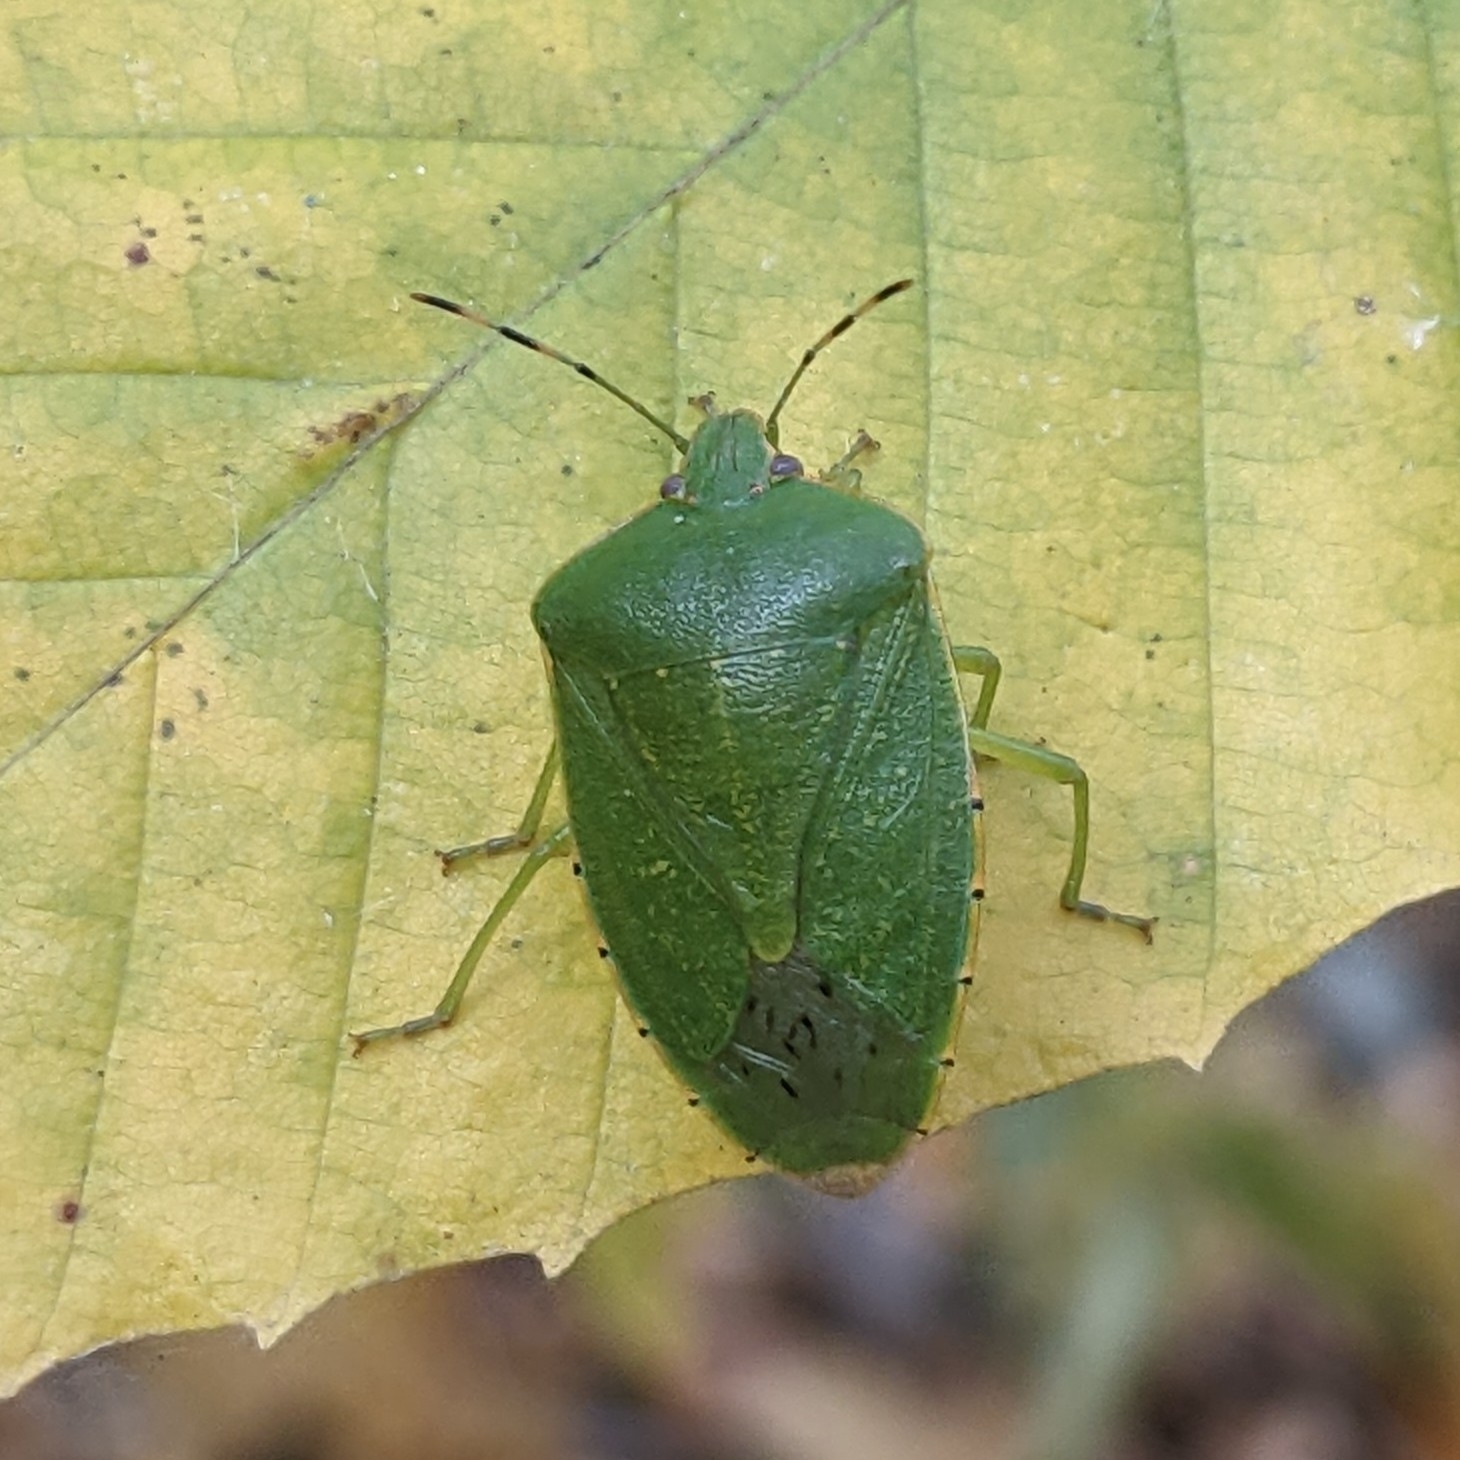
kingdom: Animalia
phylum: Arthropoda
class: Insecta
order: Hemiptera
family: Pentatomidae
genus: Chinavia
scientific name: Chinavia hilaris
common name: Green stink bug
